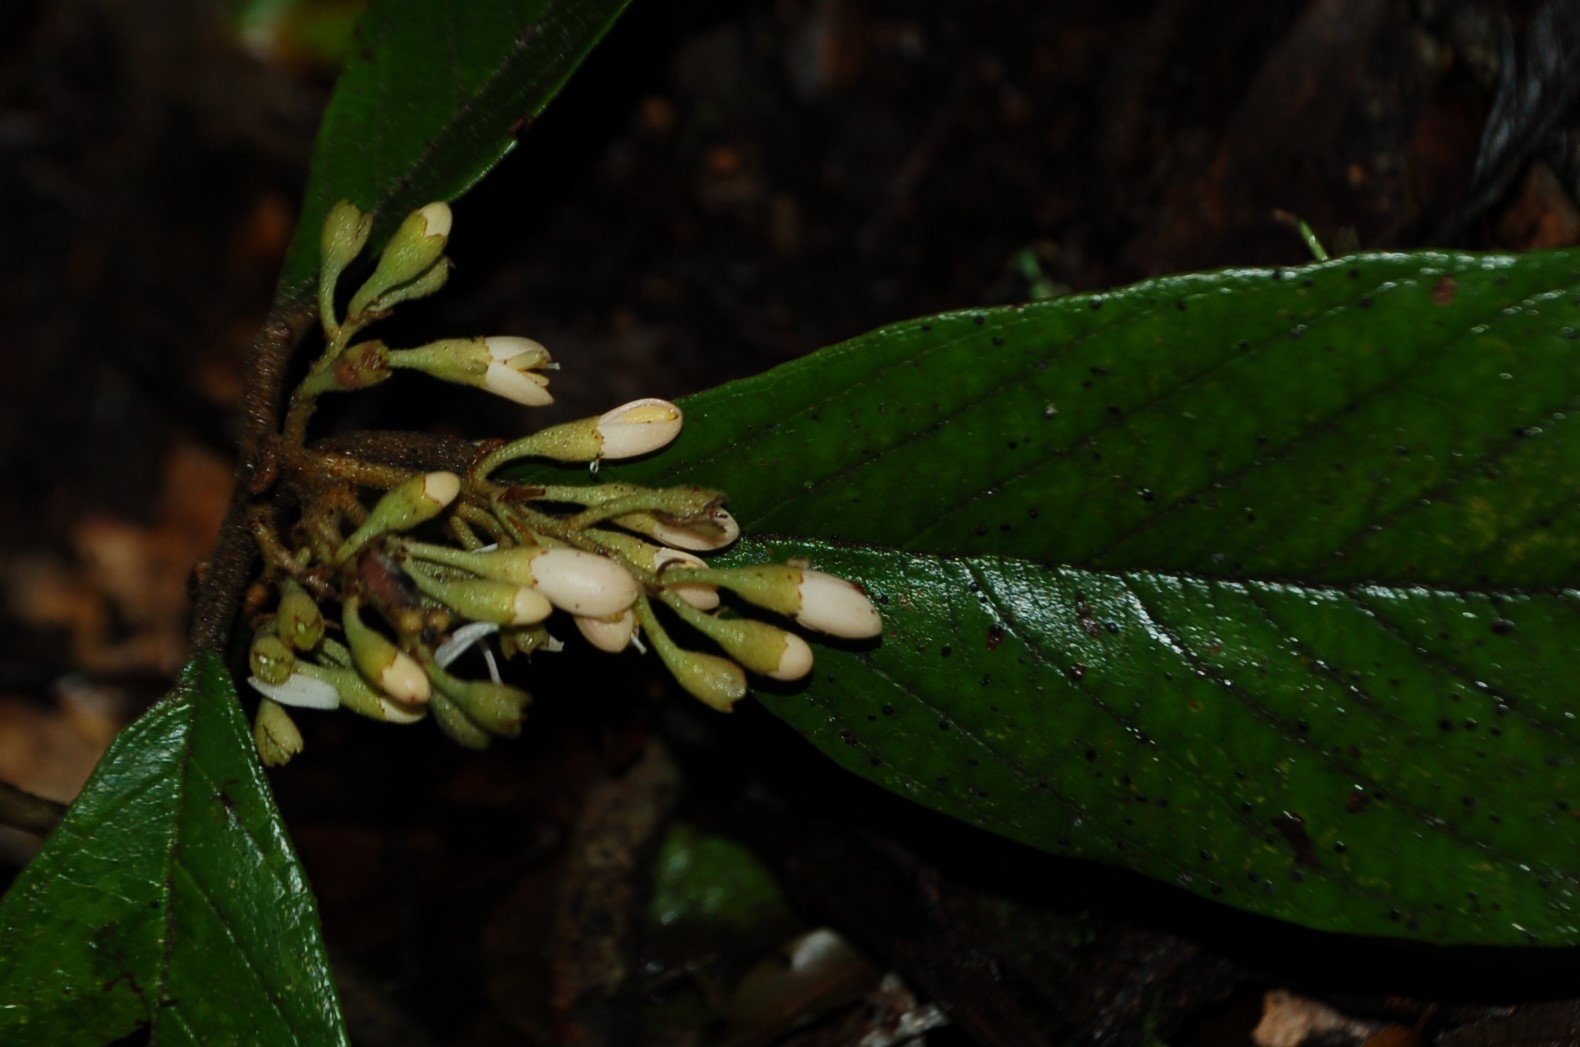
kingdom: Plantae
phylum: Tracheophyta
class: Magnoliopsida
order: Ericales
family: Styracaceae
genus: Styrax
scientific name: Styrax magnus
